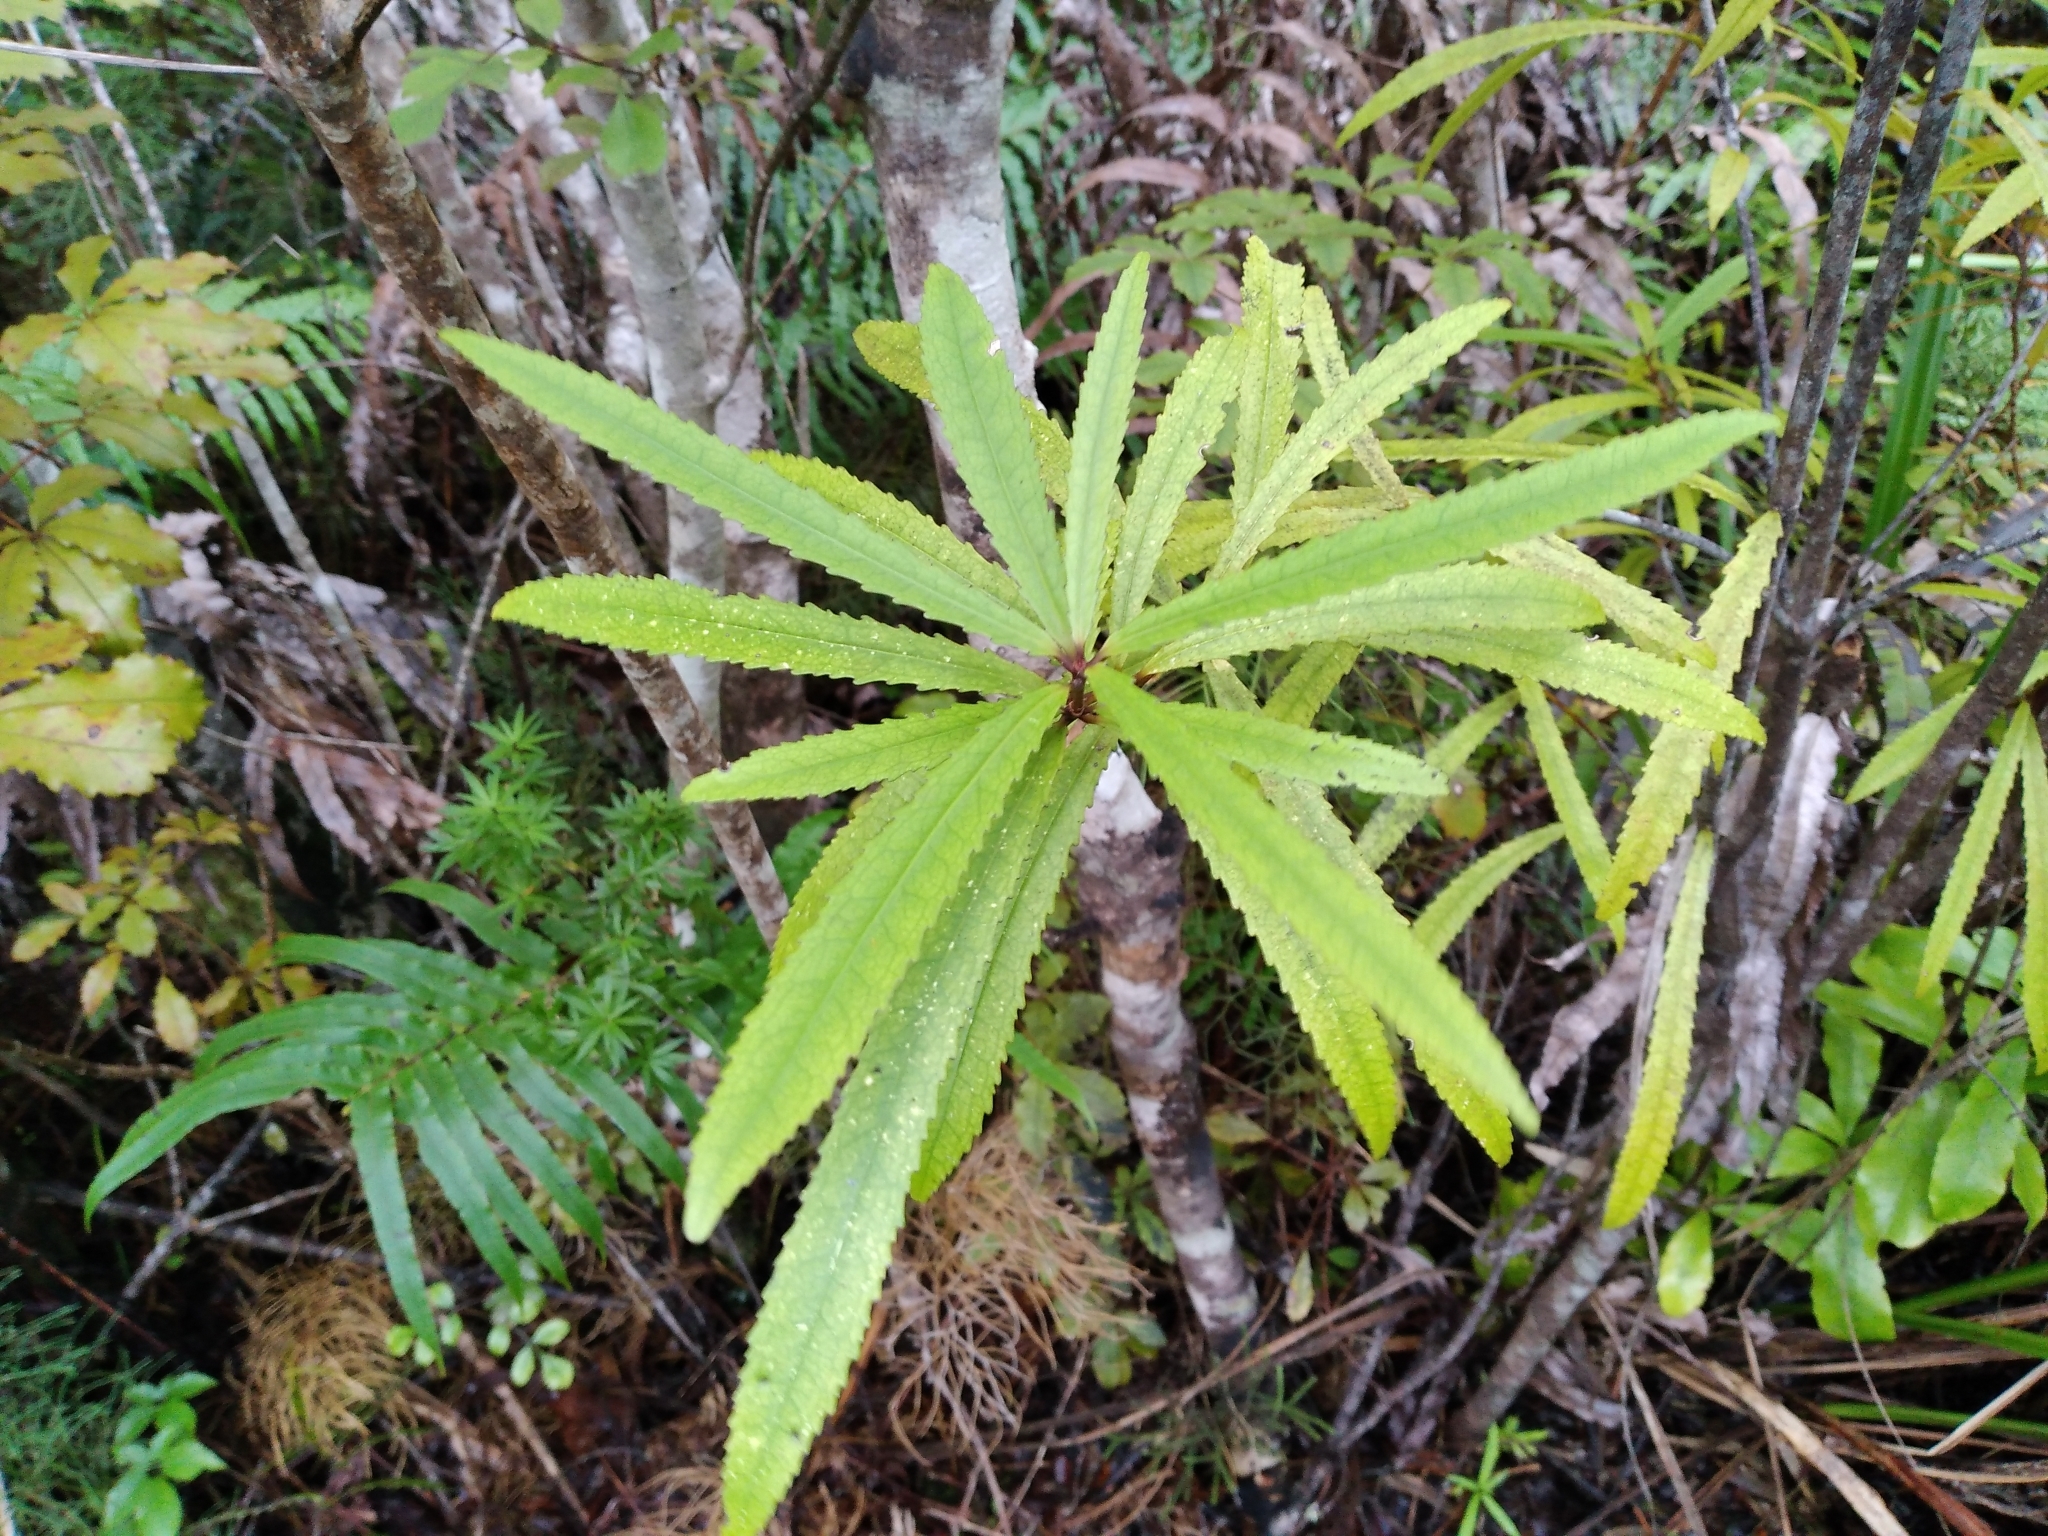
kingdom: Plantae
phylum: Tracheophyta
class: Magnoliopsida
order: Crossosomatales
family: Ixerbaceae
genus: Ixerba
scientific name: Ixerba brexioides
